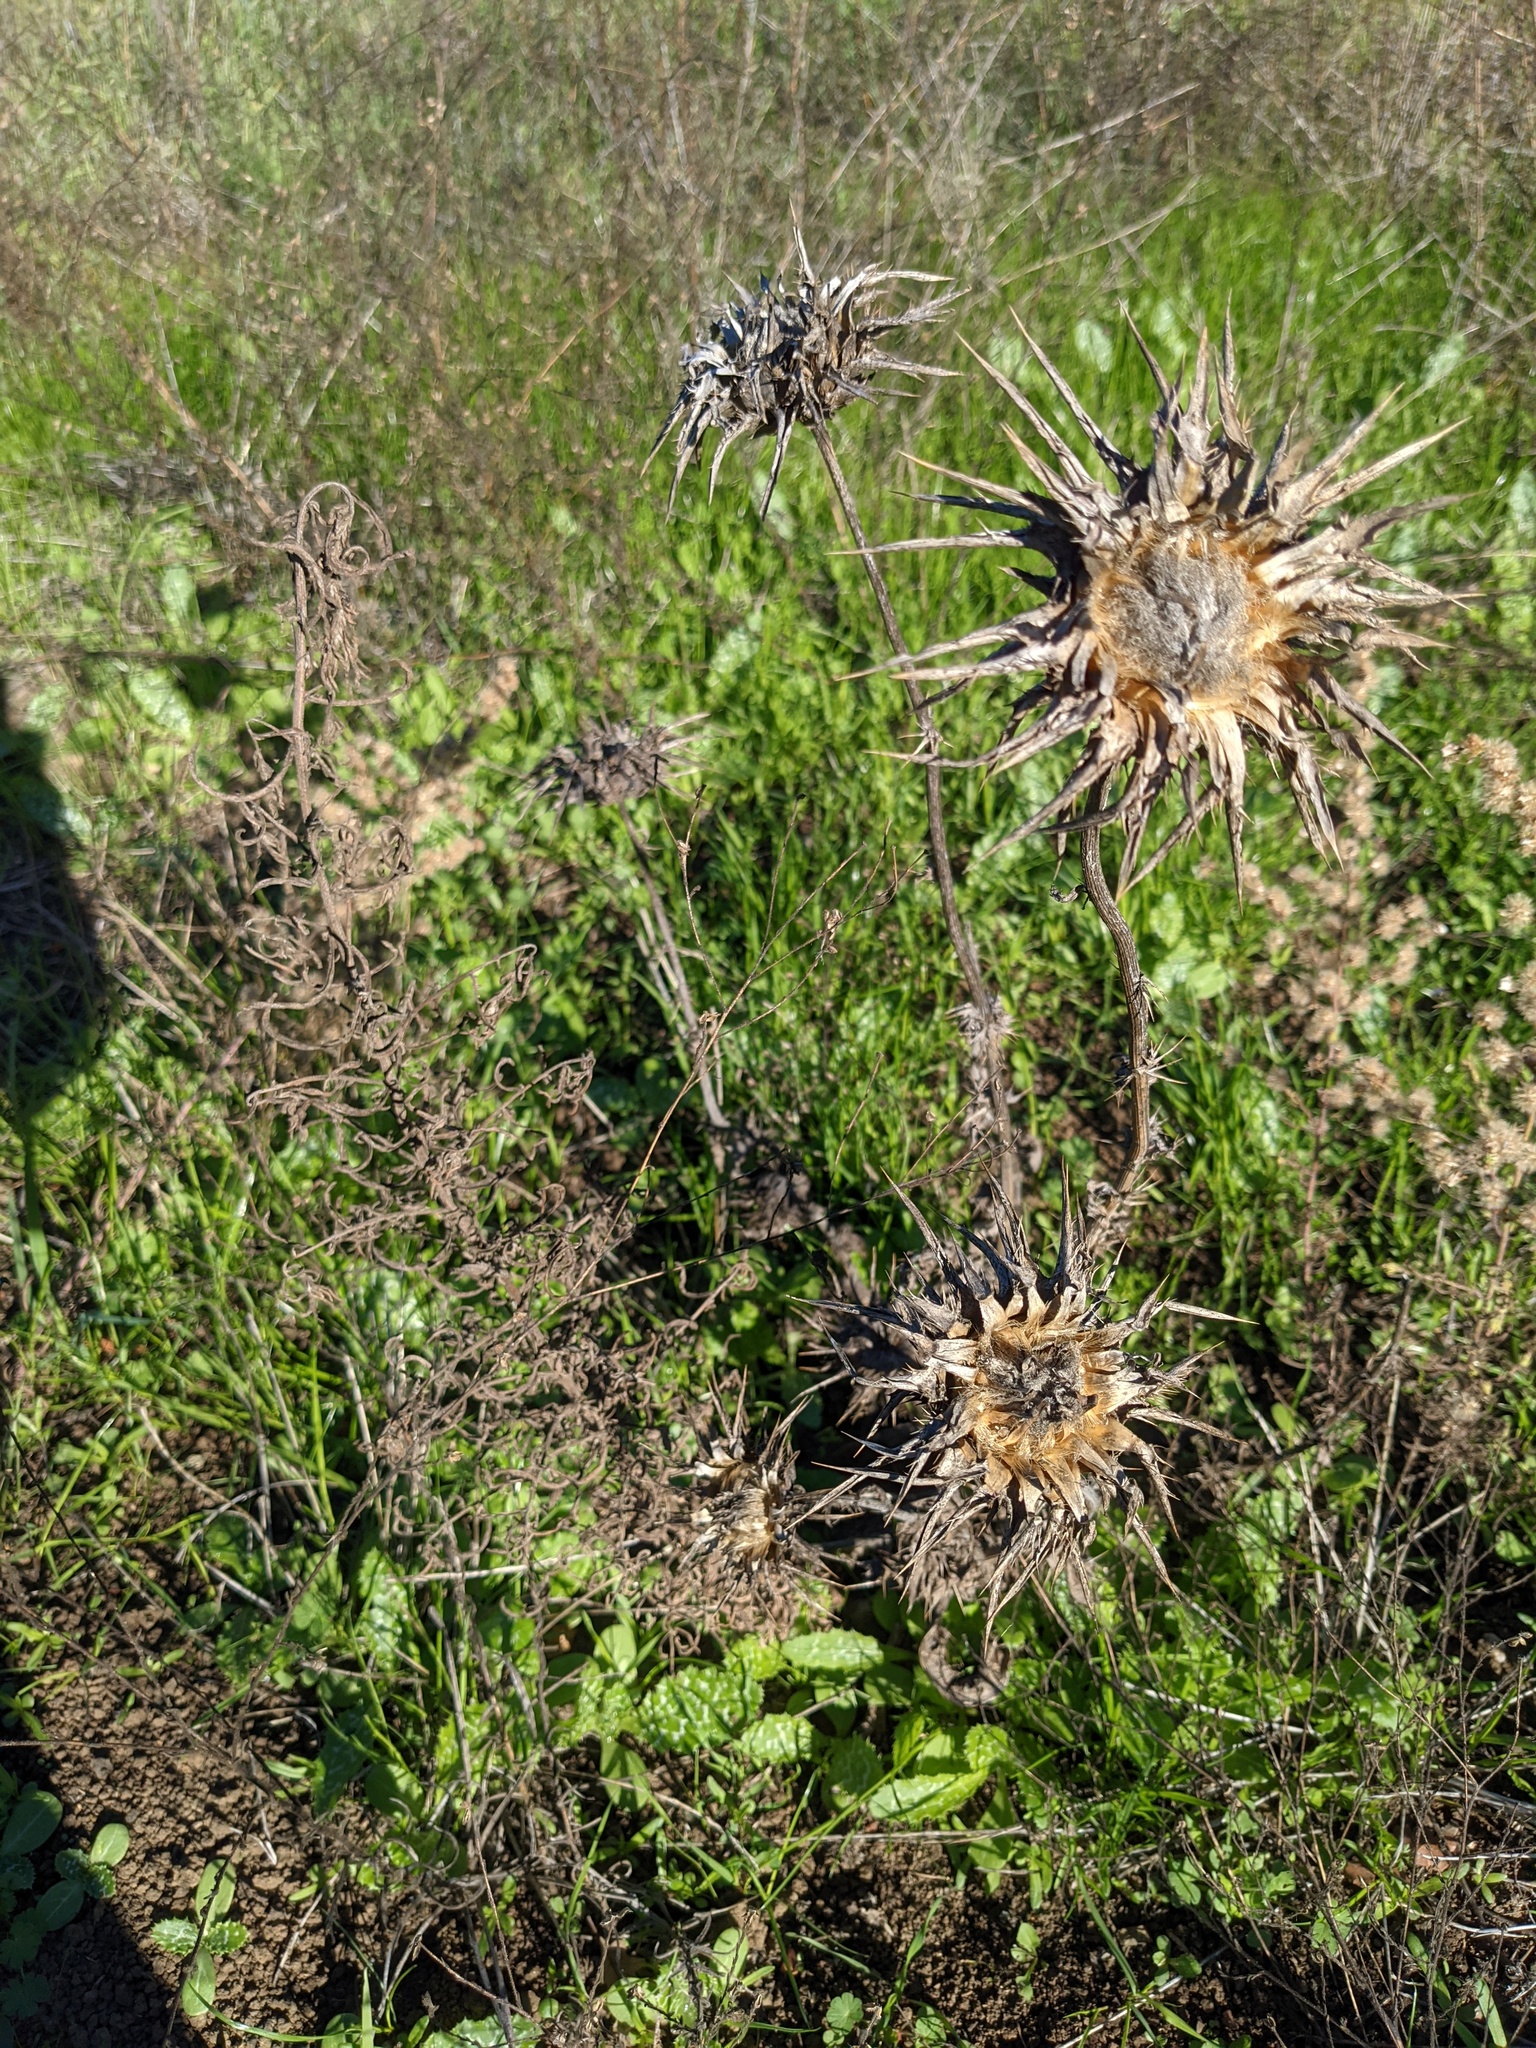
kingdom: Plantae
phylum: Tracheophyta
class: Magnoliopsida
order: Asterales
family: Asteraceae
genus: Silybum
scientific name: Silybum marianum
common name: Milk thistle
